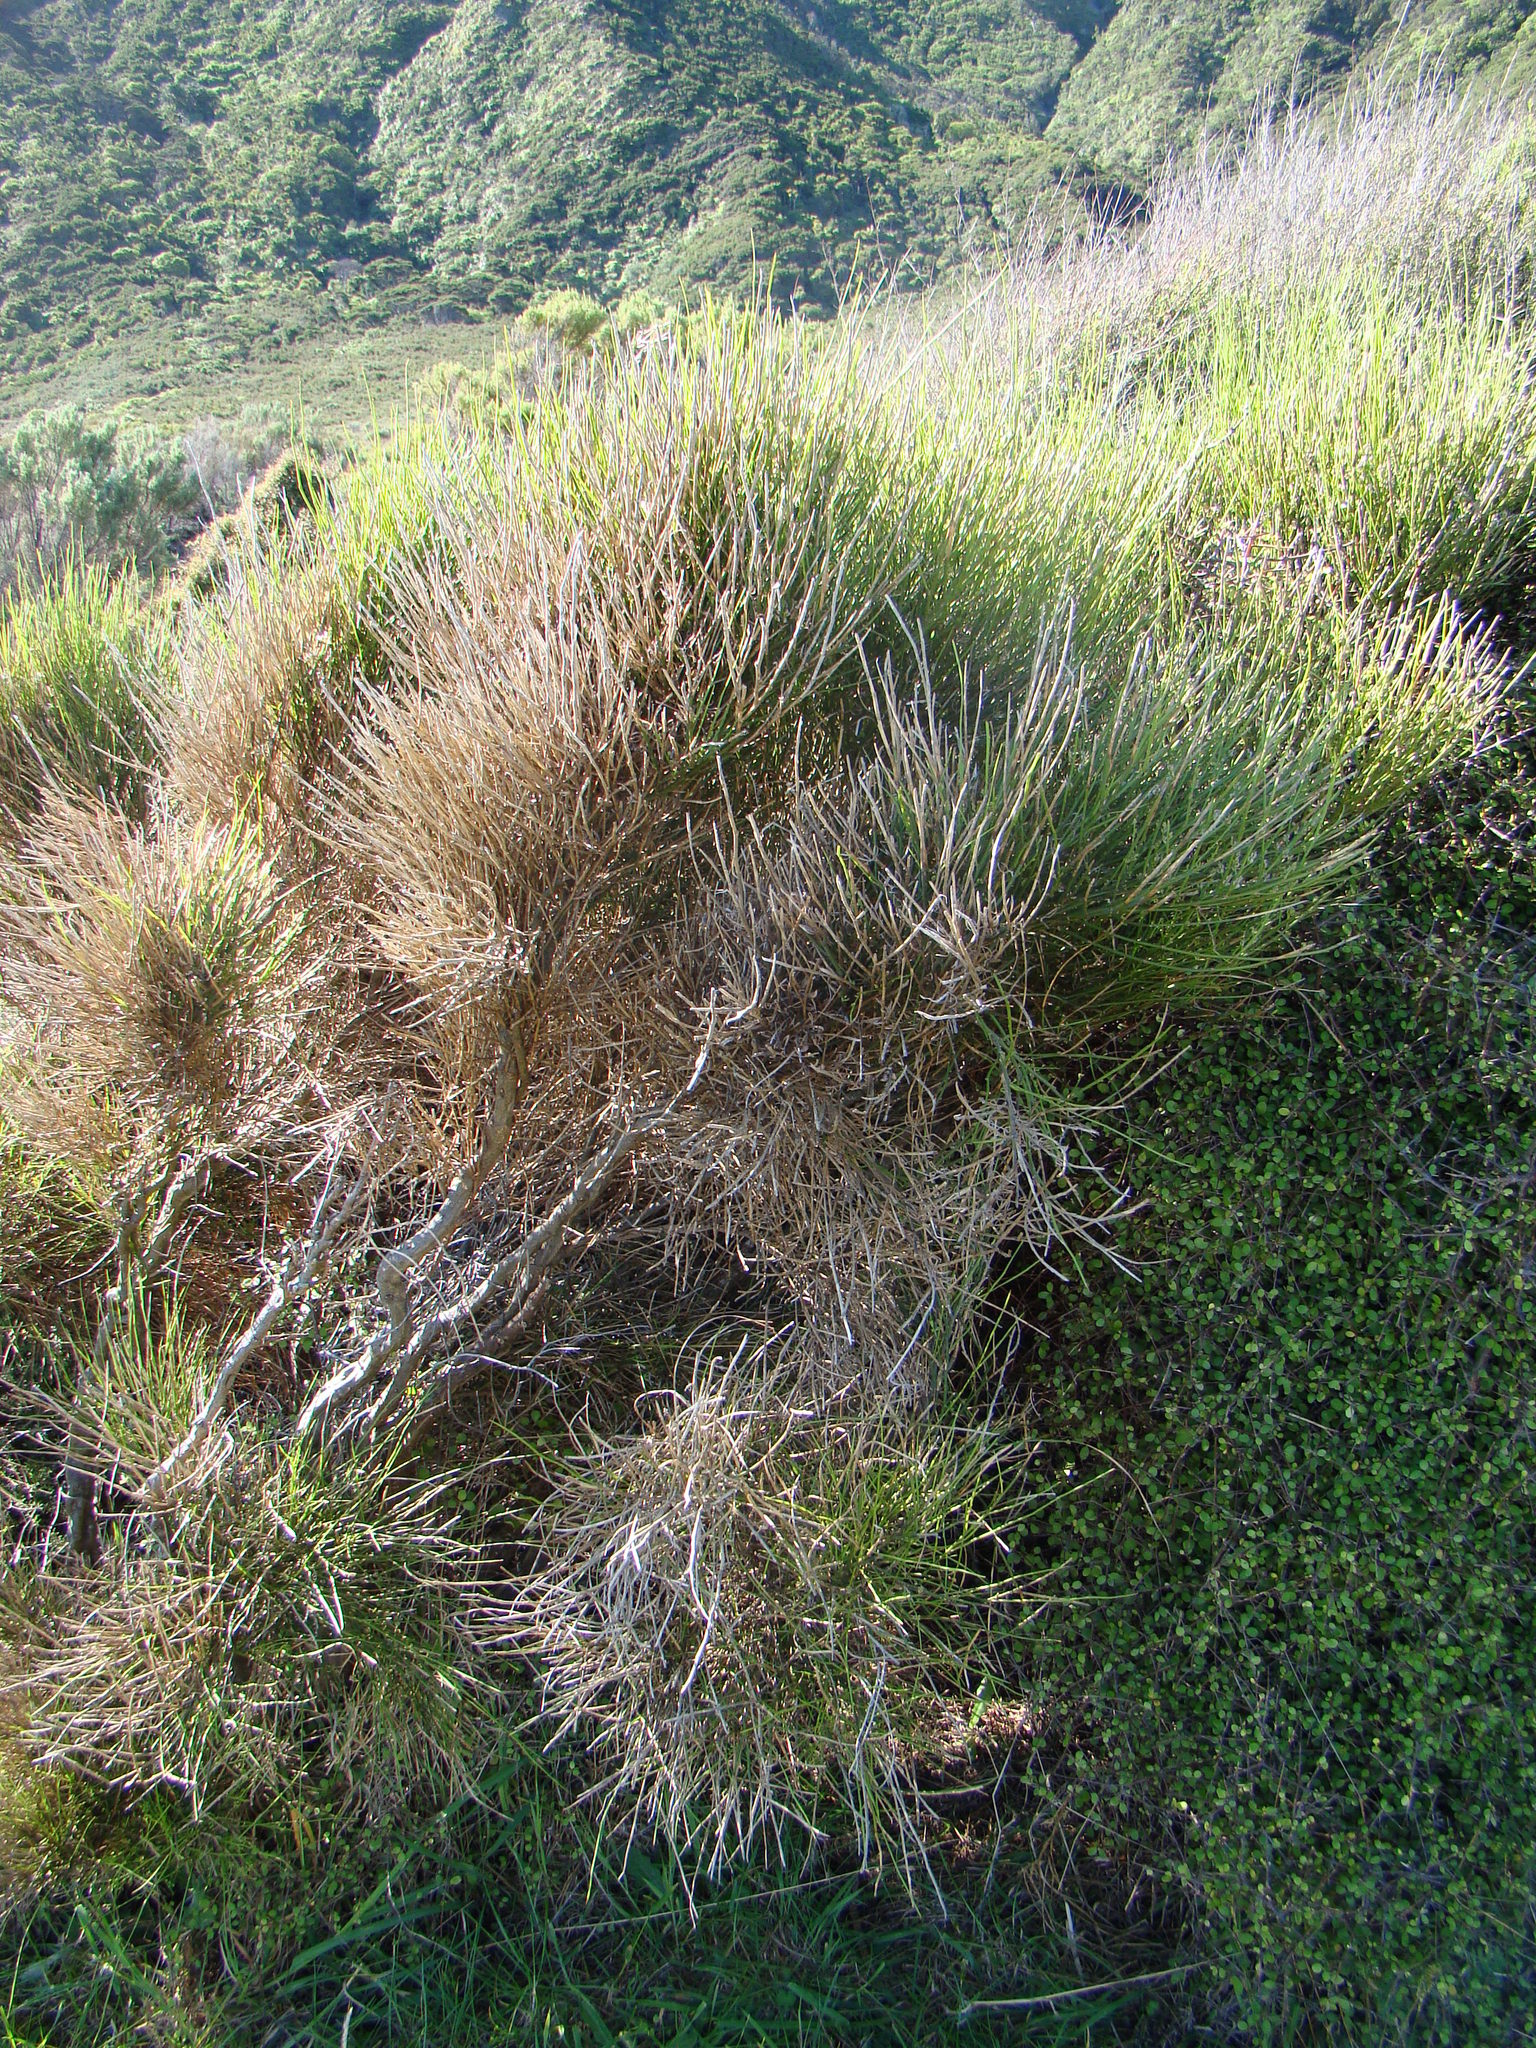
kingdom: Plantae
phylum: Tracheophyta
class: Magnoliopsida
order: Fabales
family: Fabaceae
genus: Carmichaelia
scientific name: Carmichaelia australis
